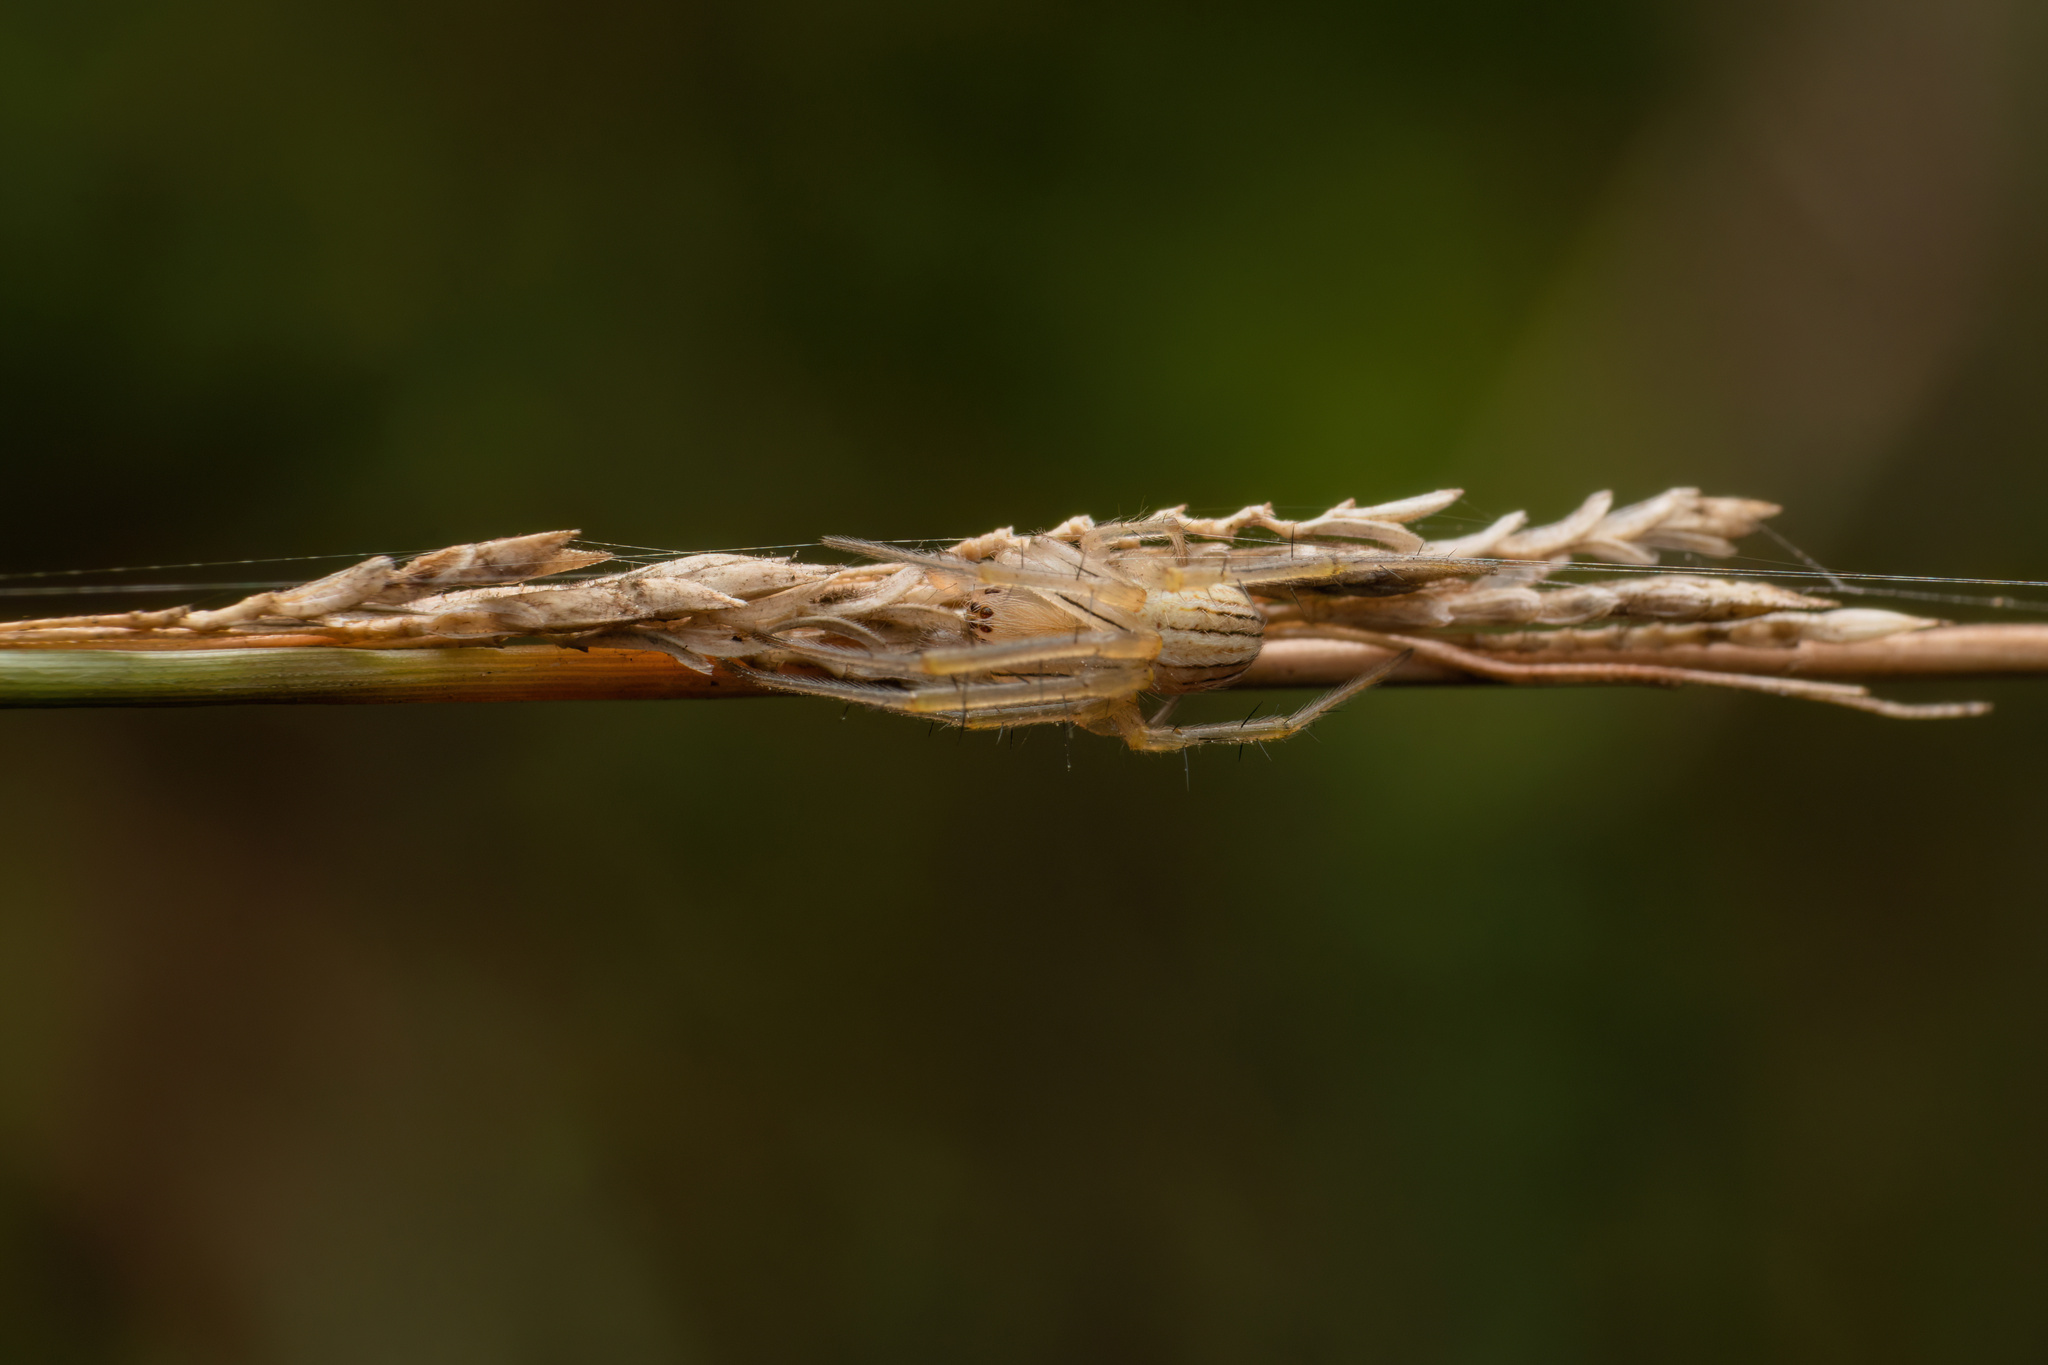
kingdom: Animalia
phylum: Arthropoda
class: Arachnida
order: Araneae
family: Araneidae
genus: Neoscona
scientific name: Neoscona molemensis
